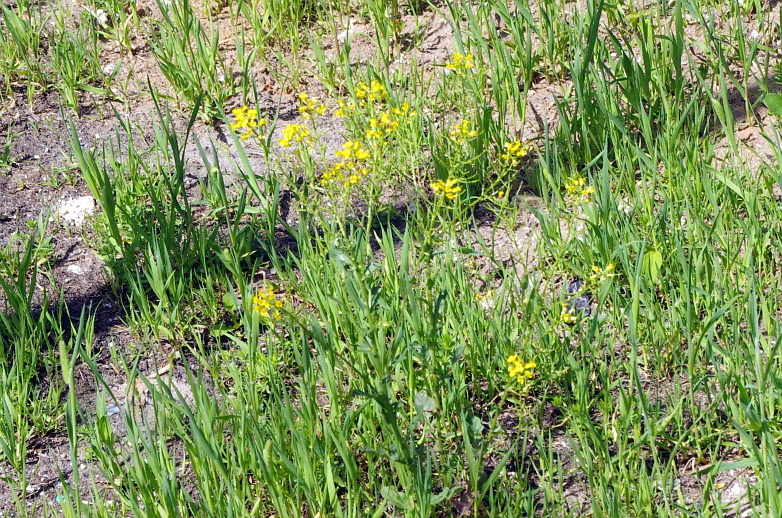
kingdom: Plantae
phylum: Tracheophyta
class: Magnoliopsida
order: Brassicales
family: Brassicaceae
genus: Barbarea
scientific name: Barbarea vulgaris
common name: Cressy-greens
